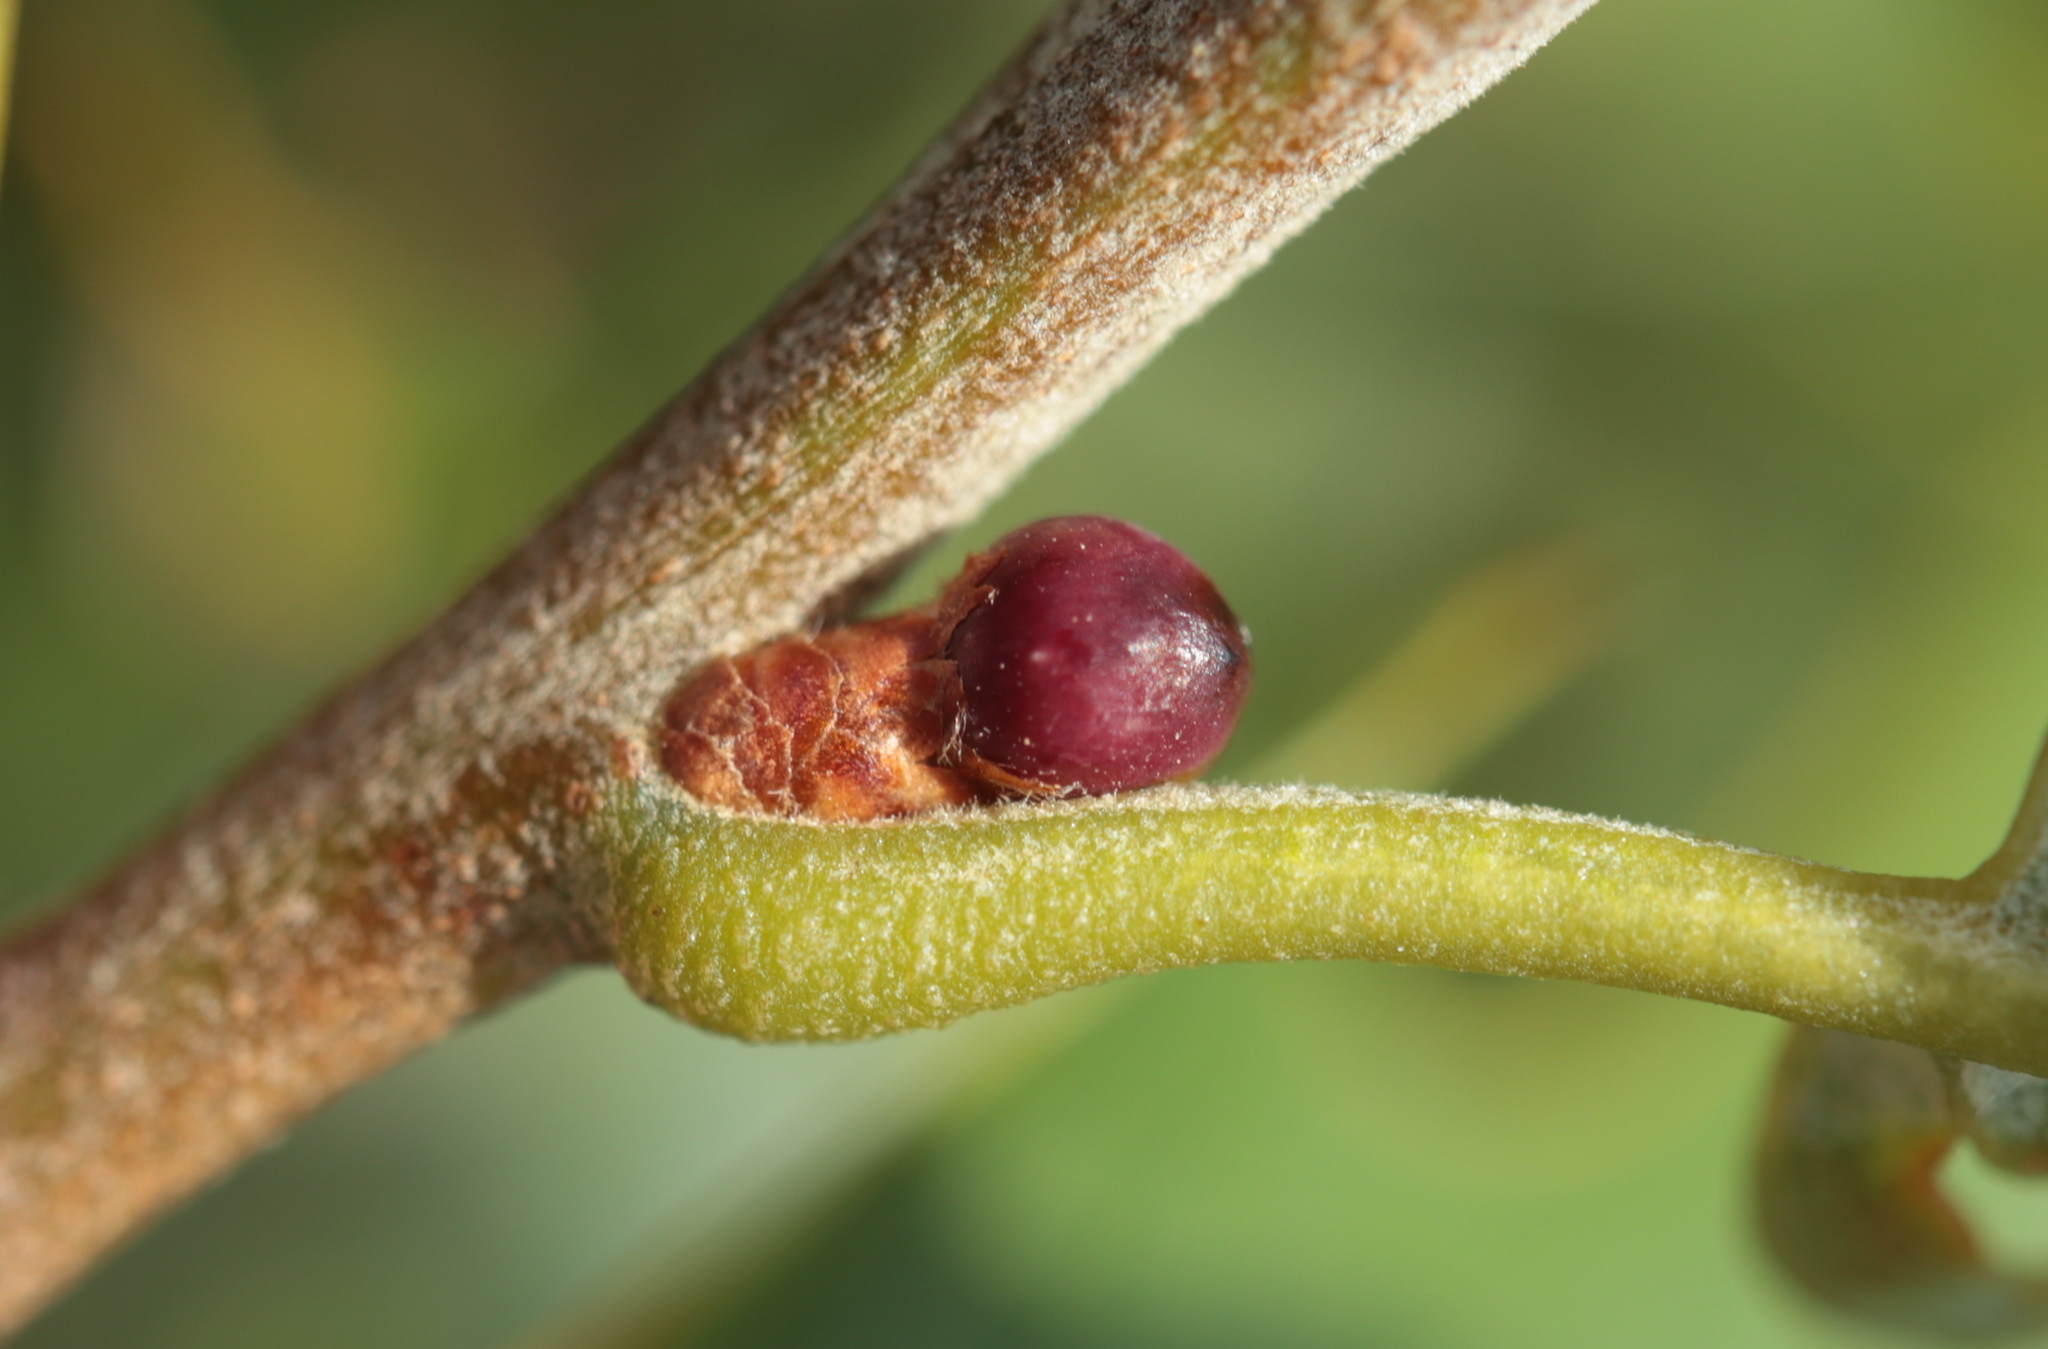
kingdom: Animalia
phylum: Arthropoda
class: Insecta
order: Hymenoptera
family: Cynipidae
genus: Callirhytis
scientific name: Callirhytis
